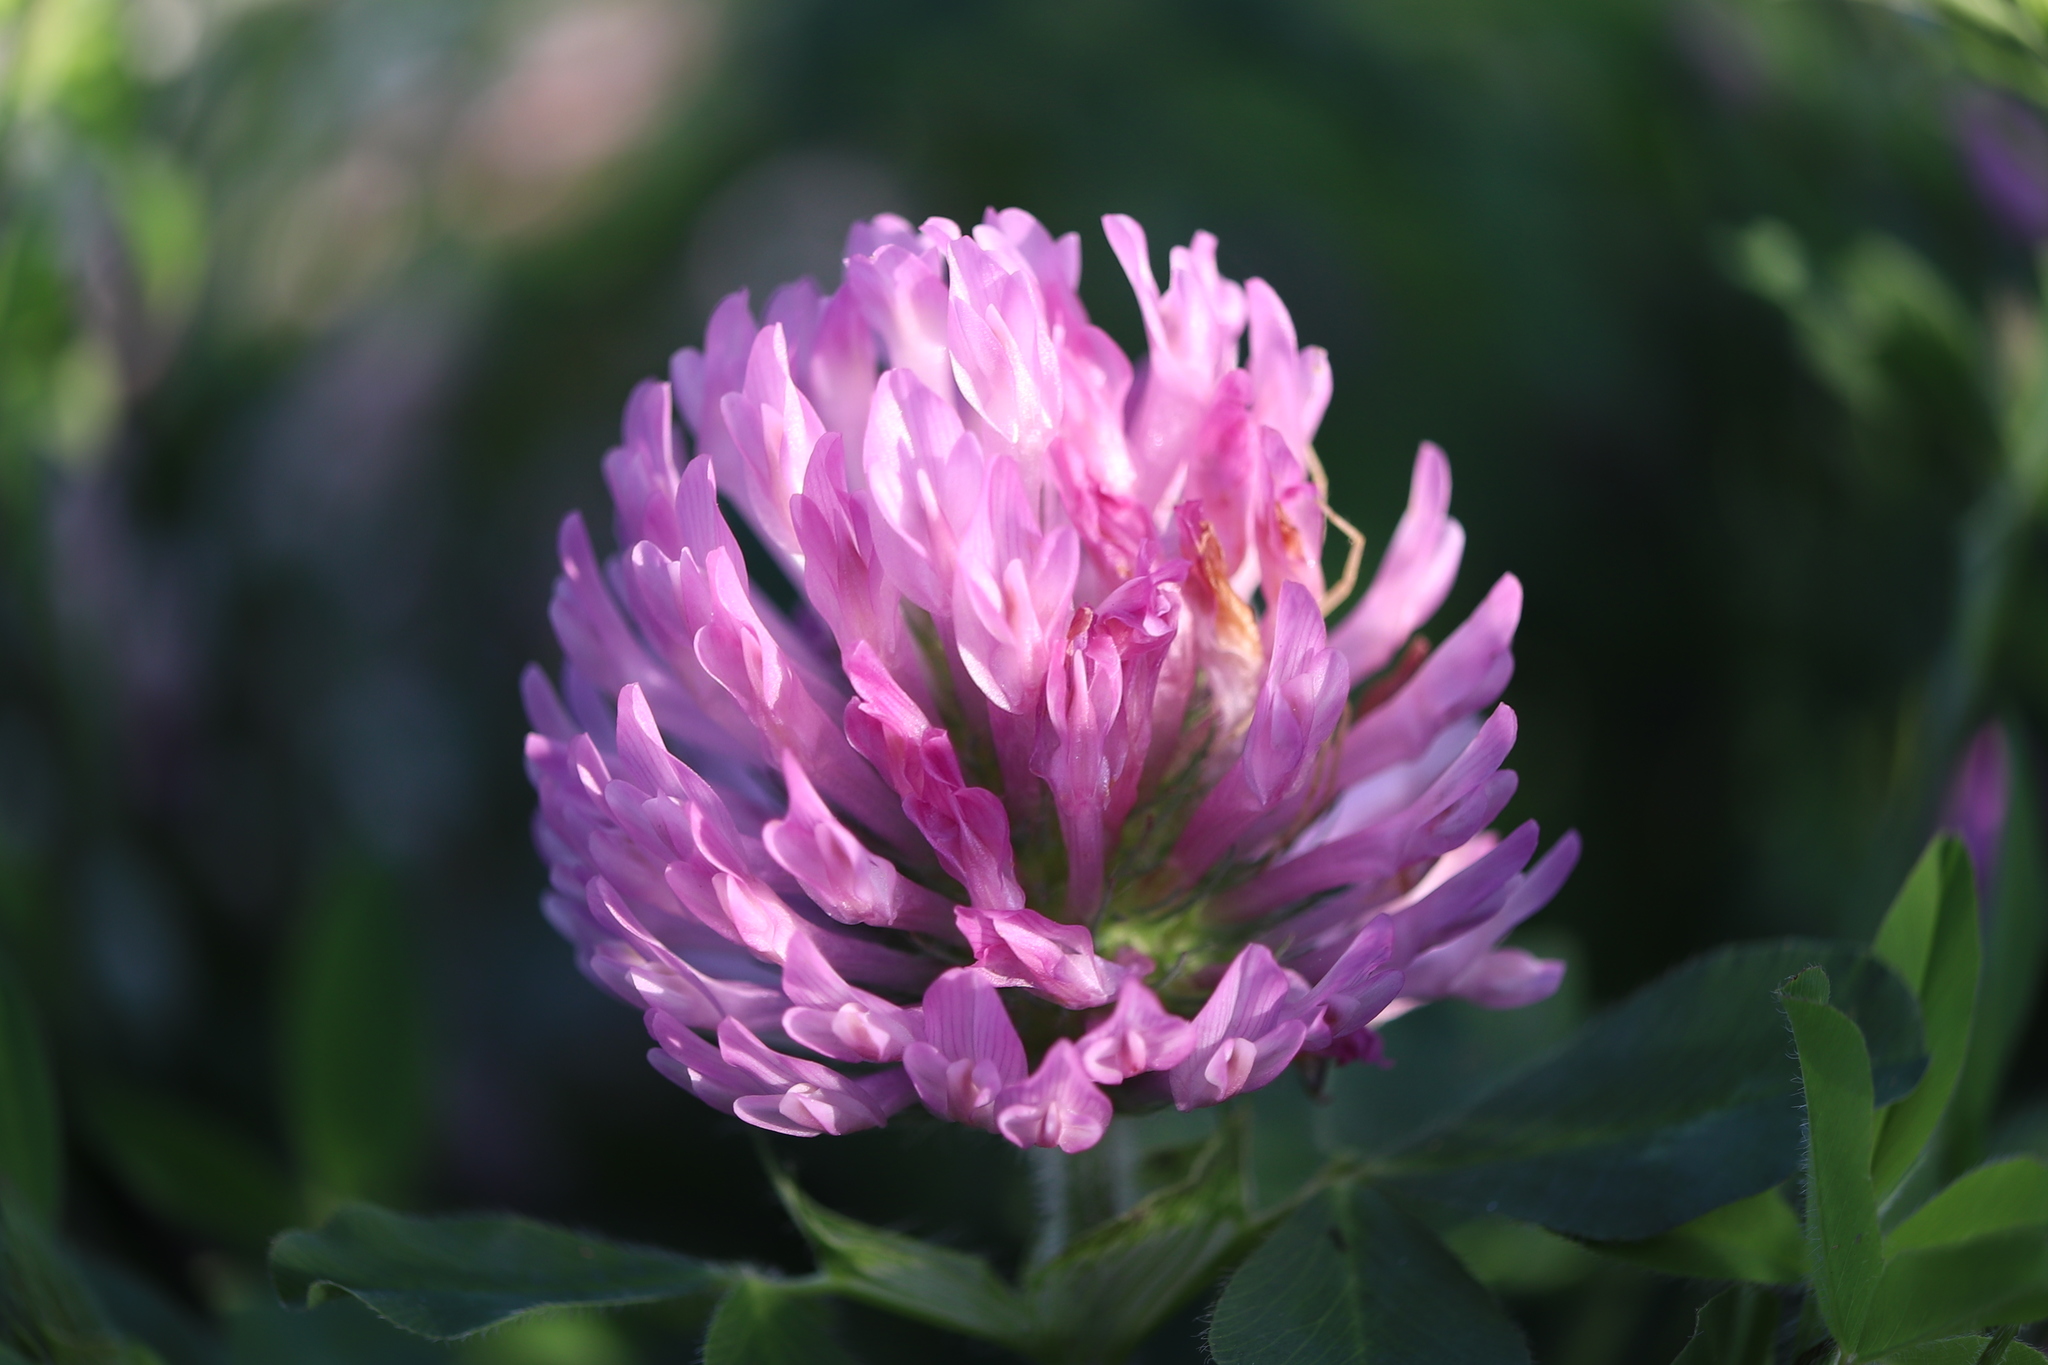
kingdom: Plantae
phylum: Tracheophyta
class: Magnoliopsida
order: Fabales
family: Fabaceae
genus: Trifolium
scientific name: Trifolium pratense
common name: Red clover
